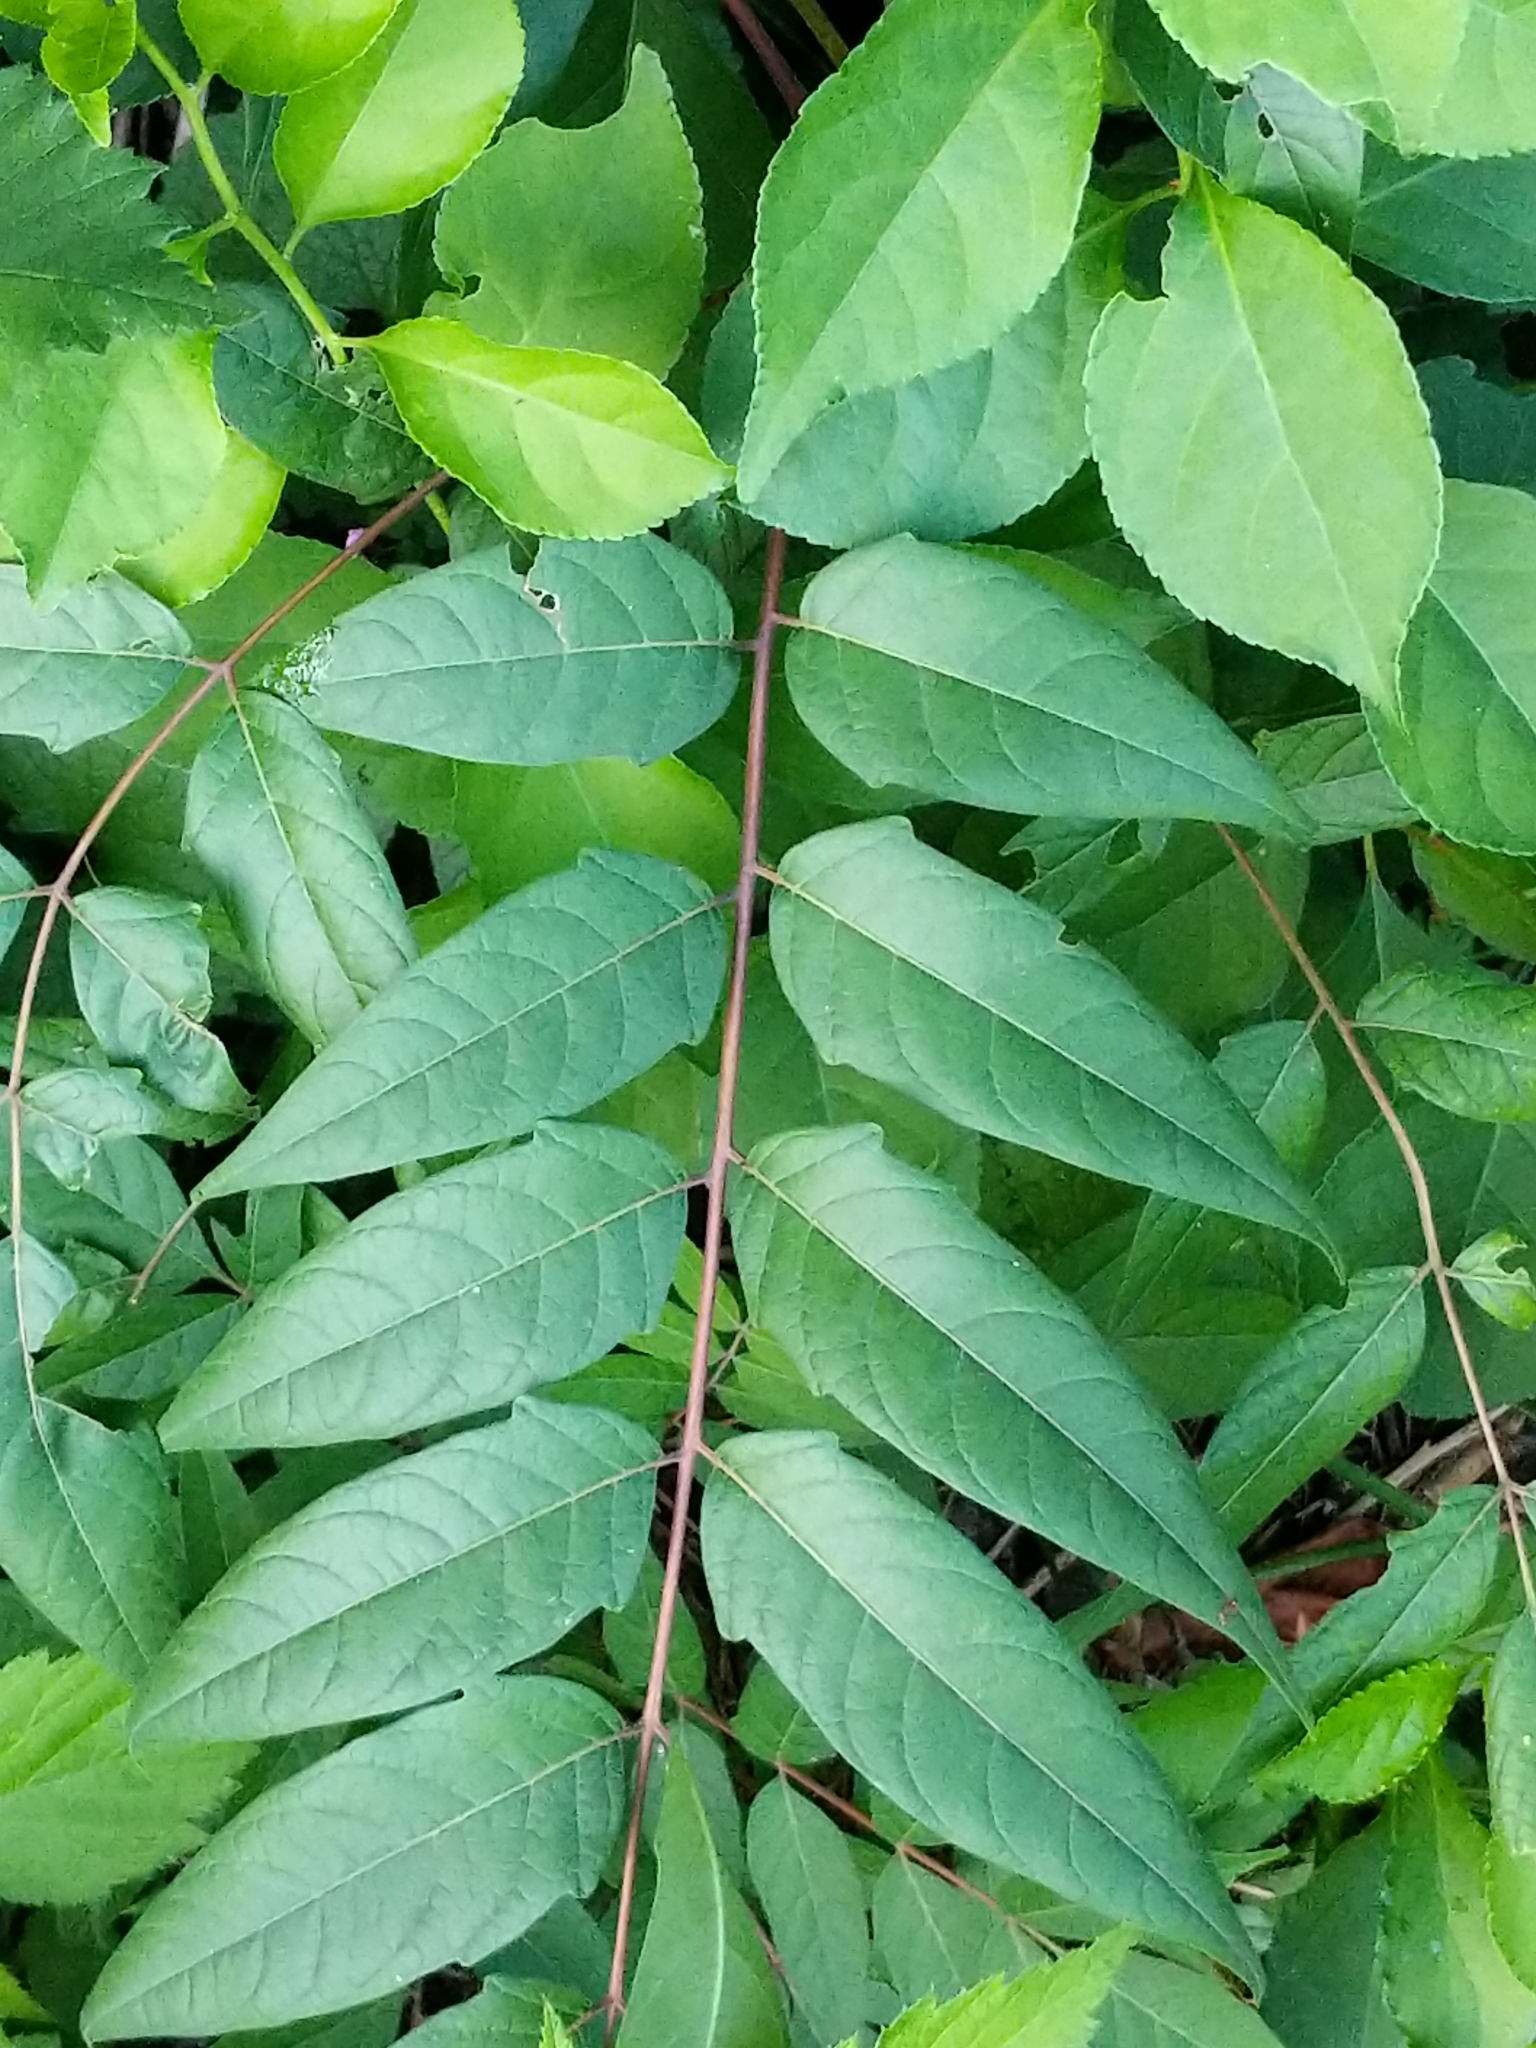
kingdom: Plantae
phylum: Tracheophyta
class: Magnoliopsida
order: Sapindales
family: Simaroubaceae
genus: Ailanthus
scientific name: Ailanthus altissima
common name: Tree-of-heaven
